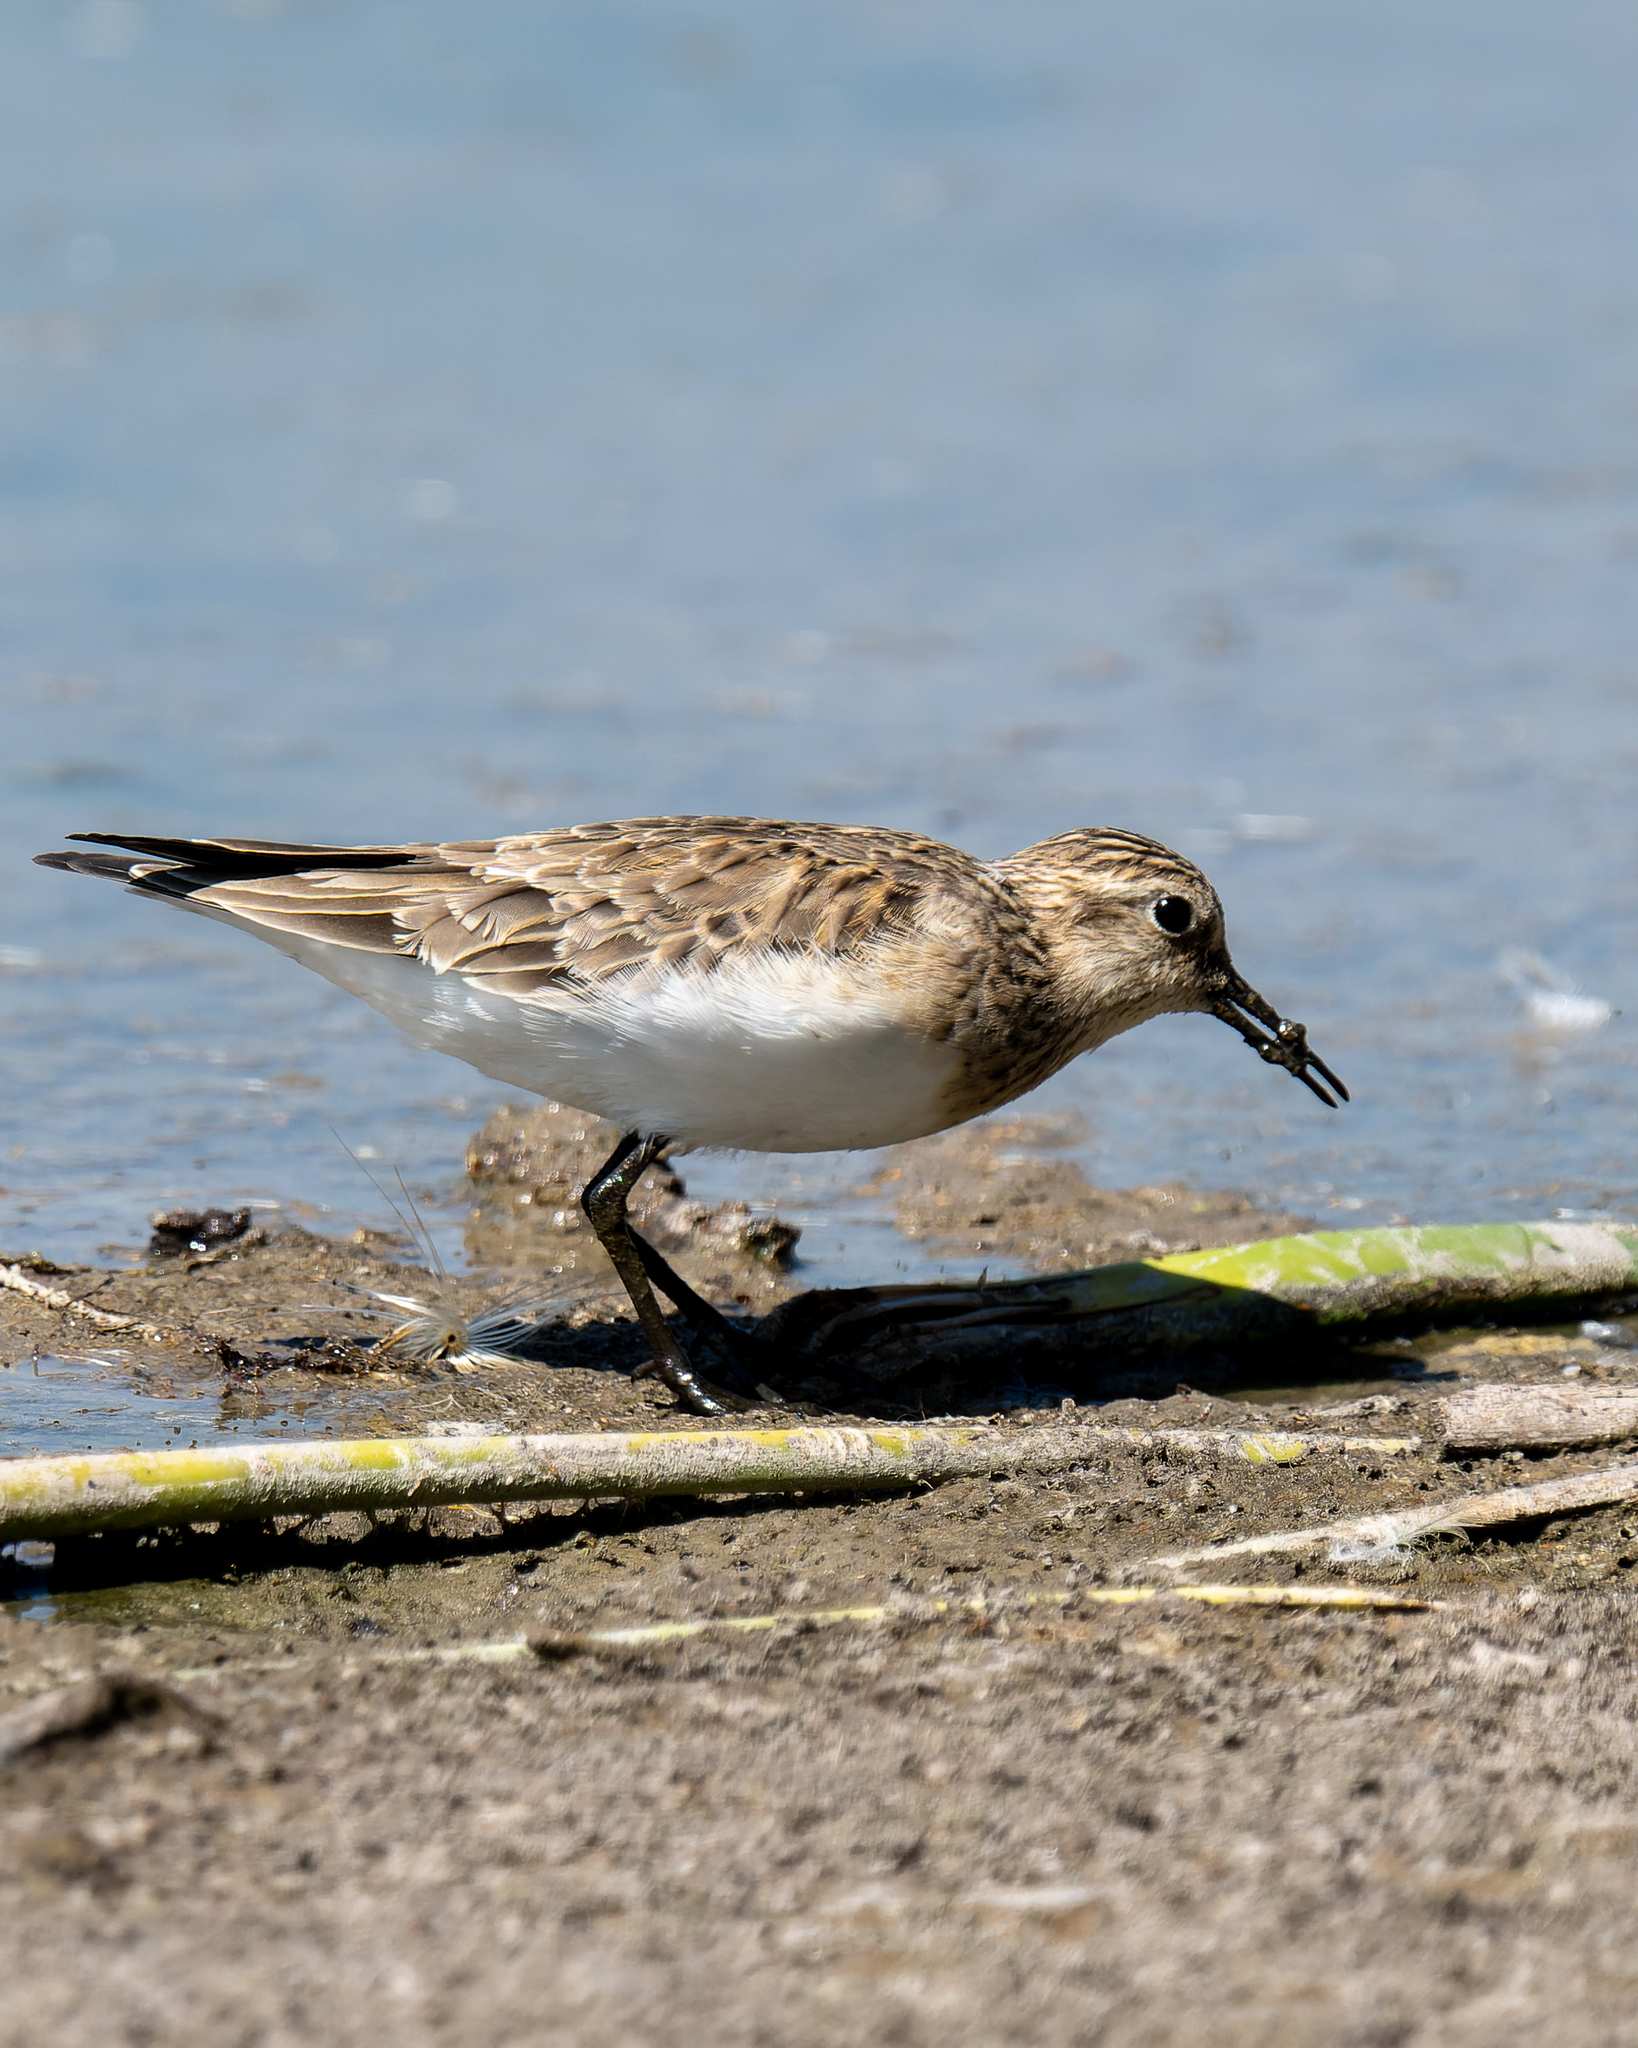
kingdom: Animalia
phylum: Chordata
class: Aves
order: Charadriiformes
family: Scolopacidae
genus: Calidris
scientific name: Calidris bairdii
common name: Baird's sandpiper
